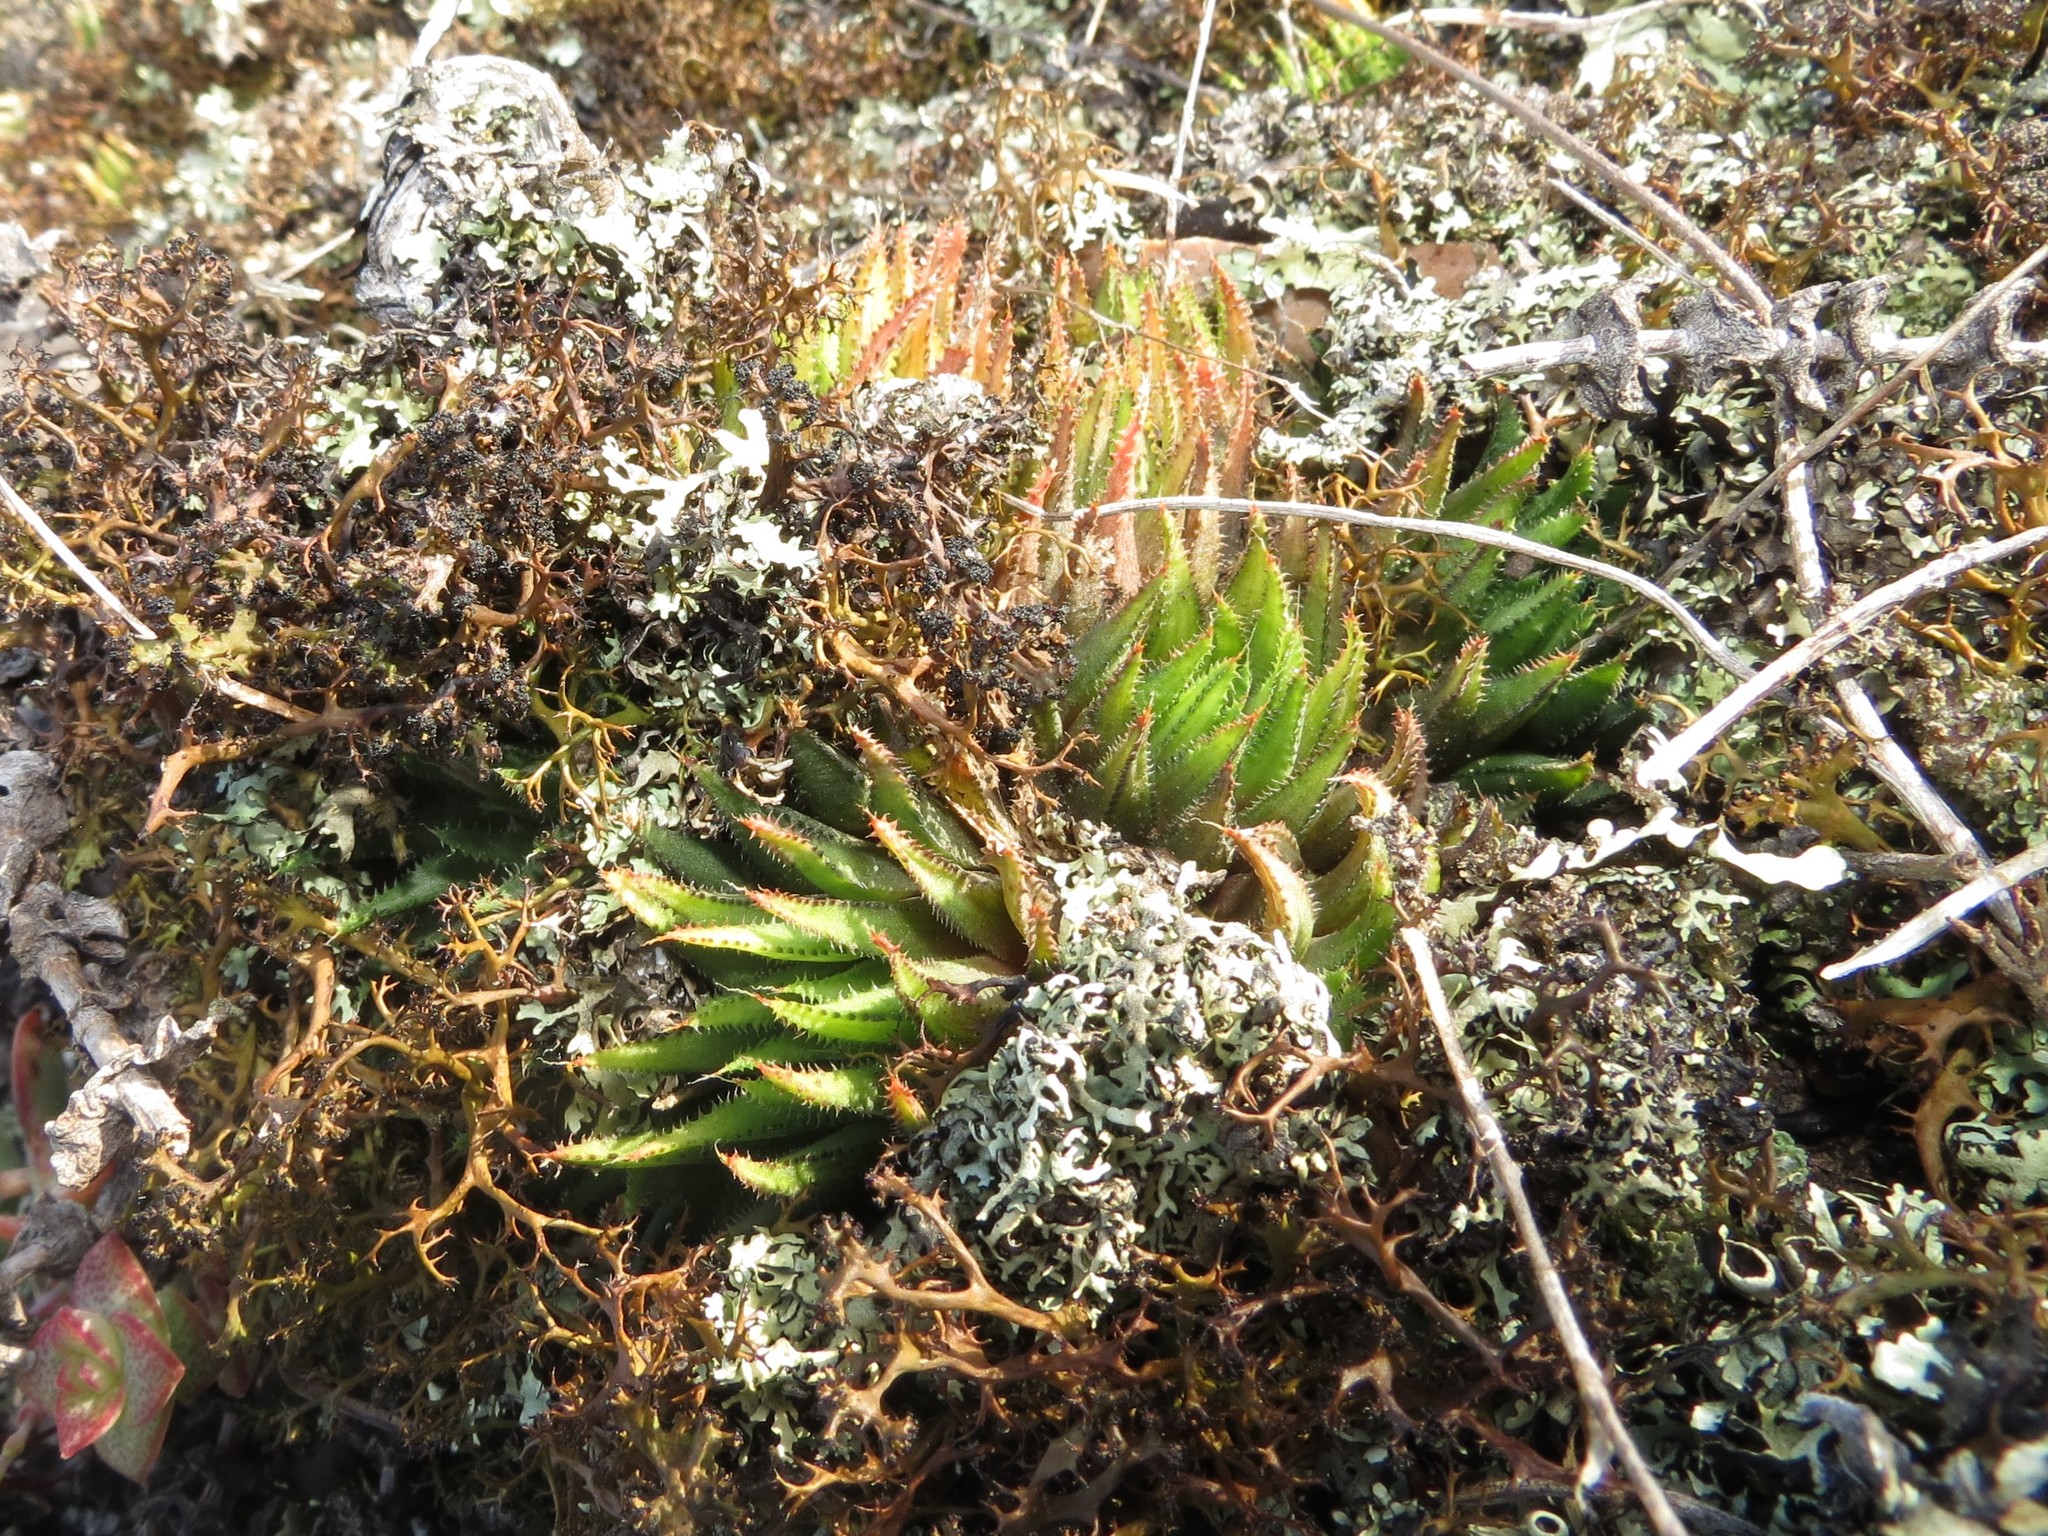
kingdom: Plantae
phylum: Tracheophyta
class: Liliopsida
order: Asparagales
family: Asphodelaceae
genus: Haworthia
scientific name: Haworthia chloracantha
